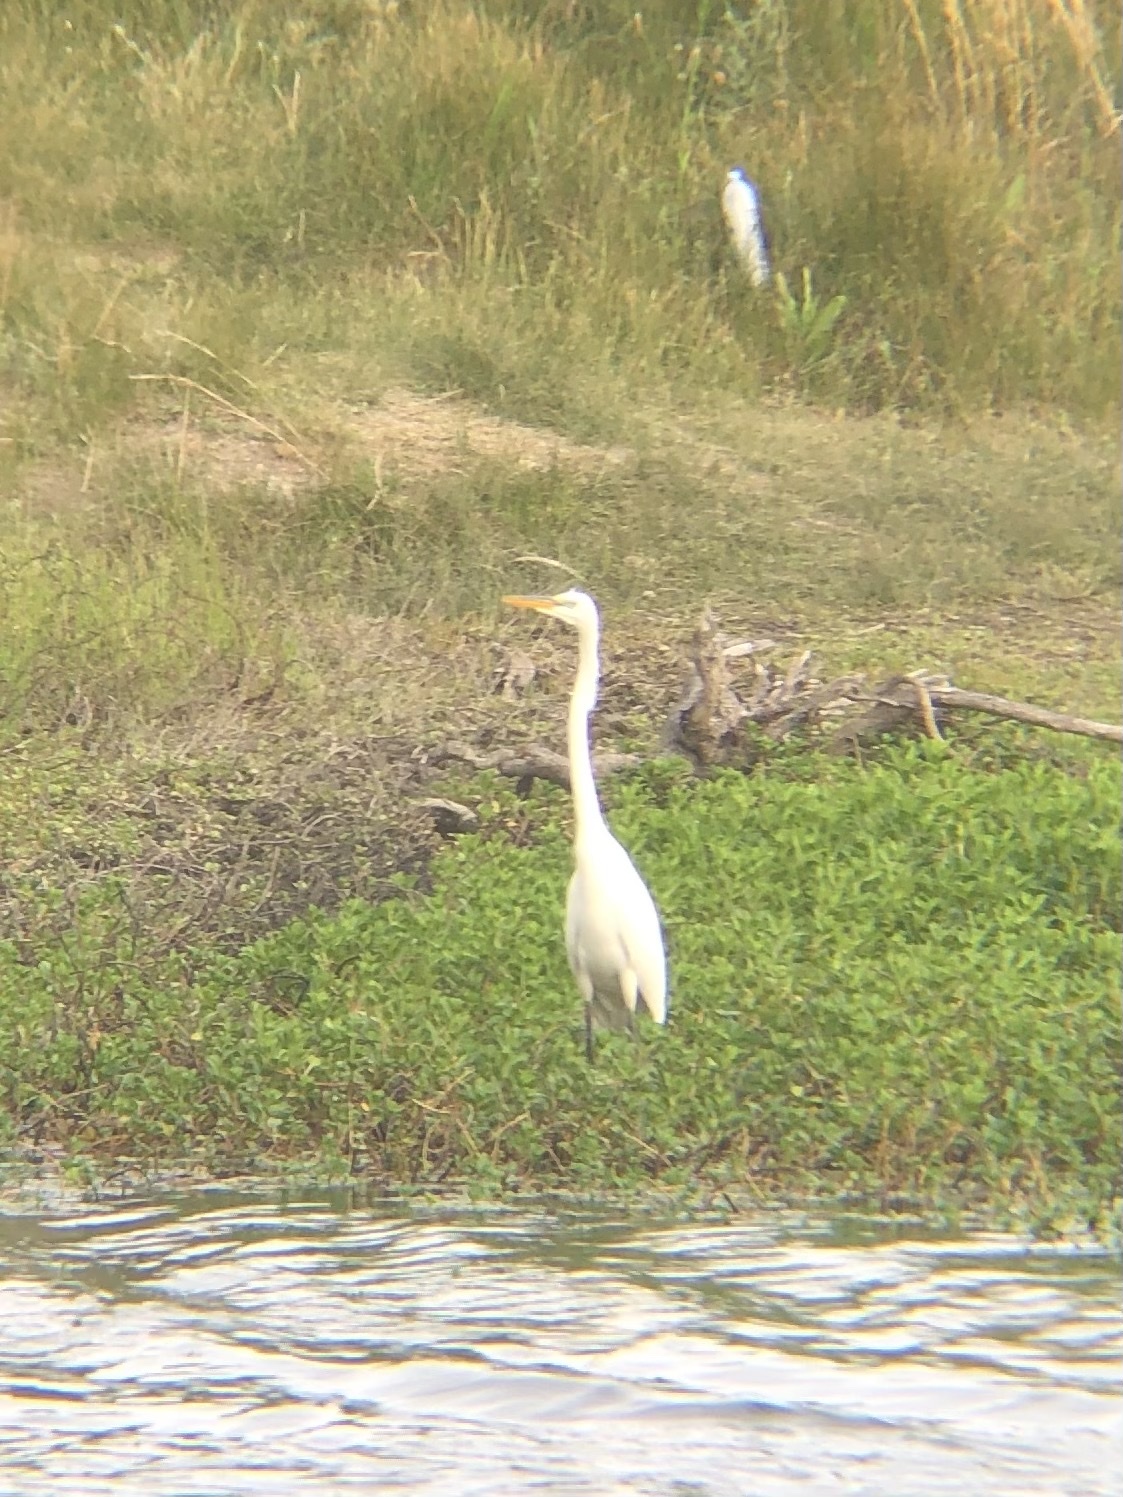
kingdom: Animalia
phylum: Chordata
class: Aves
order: Pelecaniformes
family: Ardeidae
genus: Ardea
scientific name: Ardea alba
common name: Great egret
